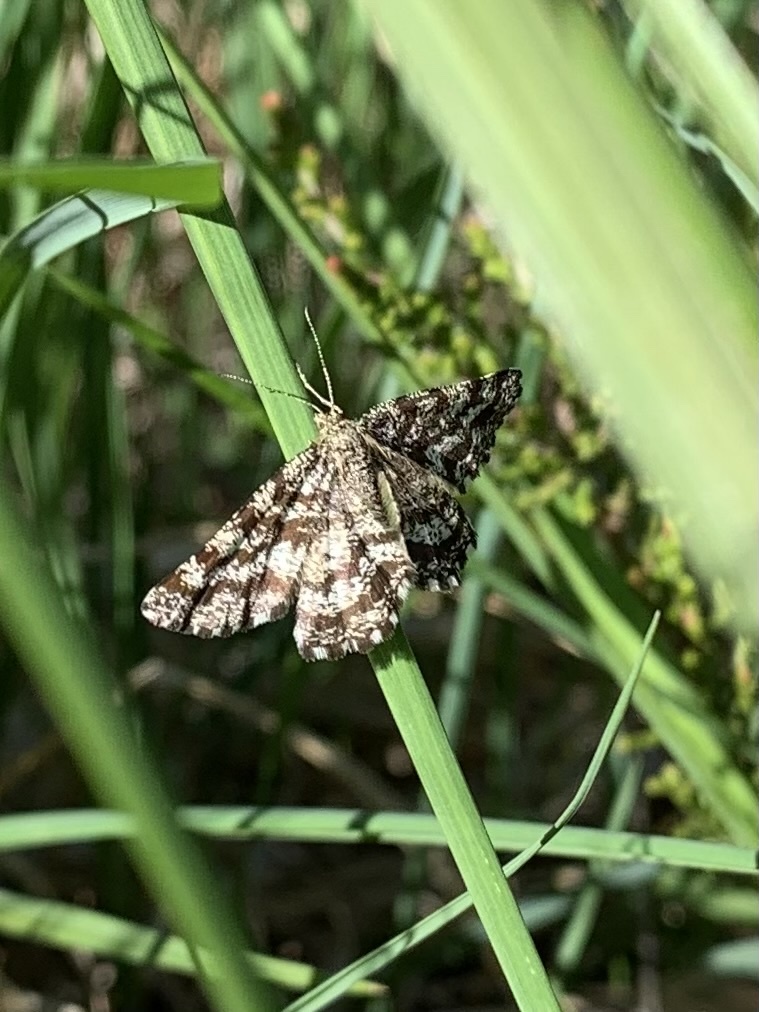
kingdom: Animalia
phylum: Arthropoda
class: Insecta
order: Lepidoptera
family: Geometridae
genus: Ematurga
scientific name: Ematurga atomaria
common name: Common heath
